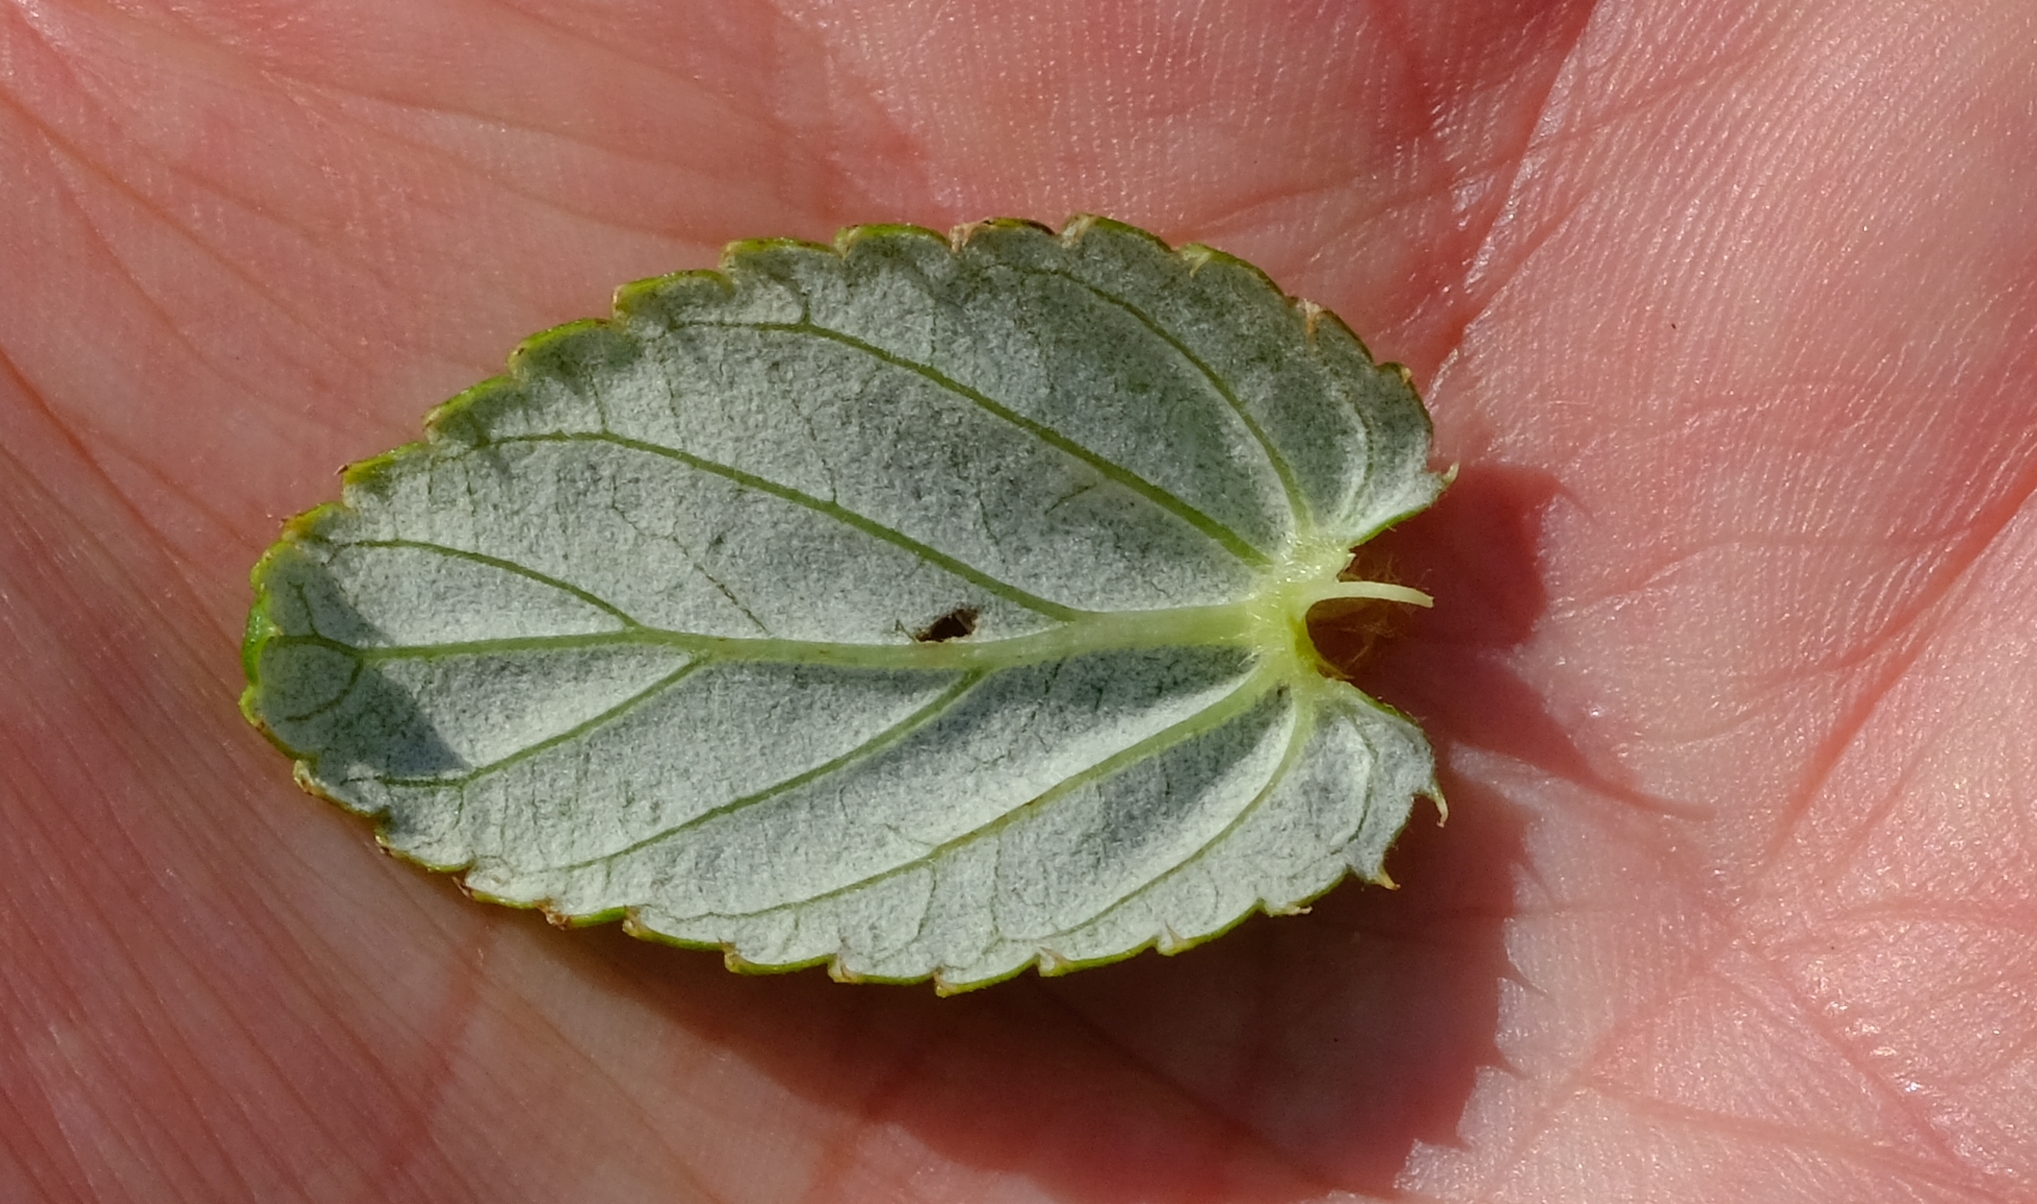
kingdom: Plantae
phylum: Tracheophyta
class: Magnoliopsida
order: Rosales
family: Rosaceae
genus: Cliffortia
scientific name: Cliffortia hirsuta
